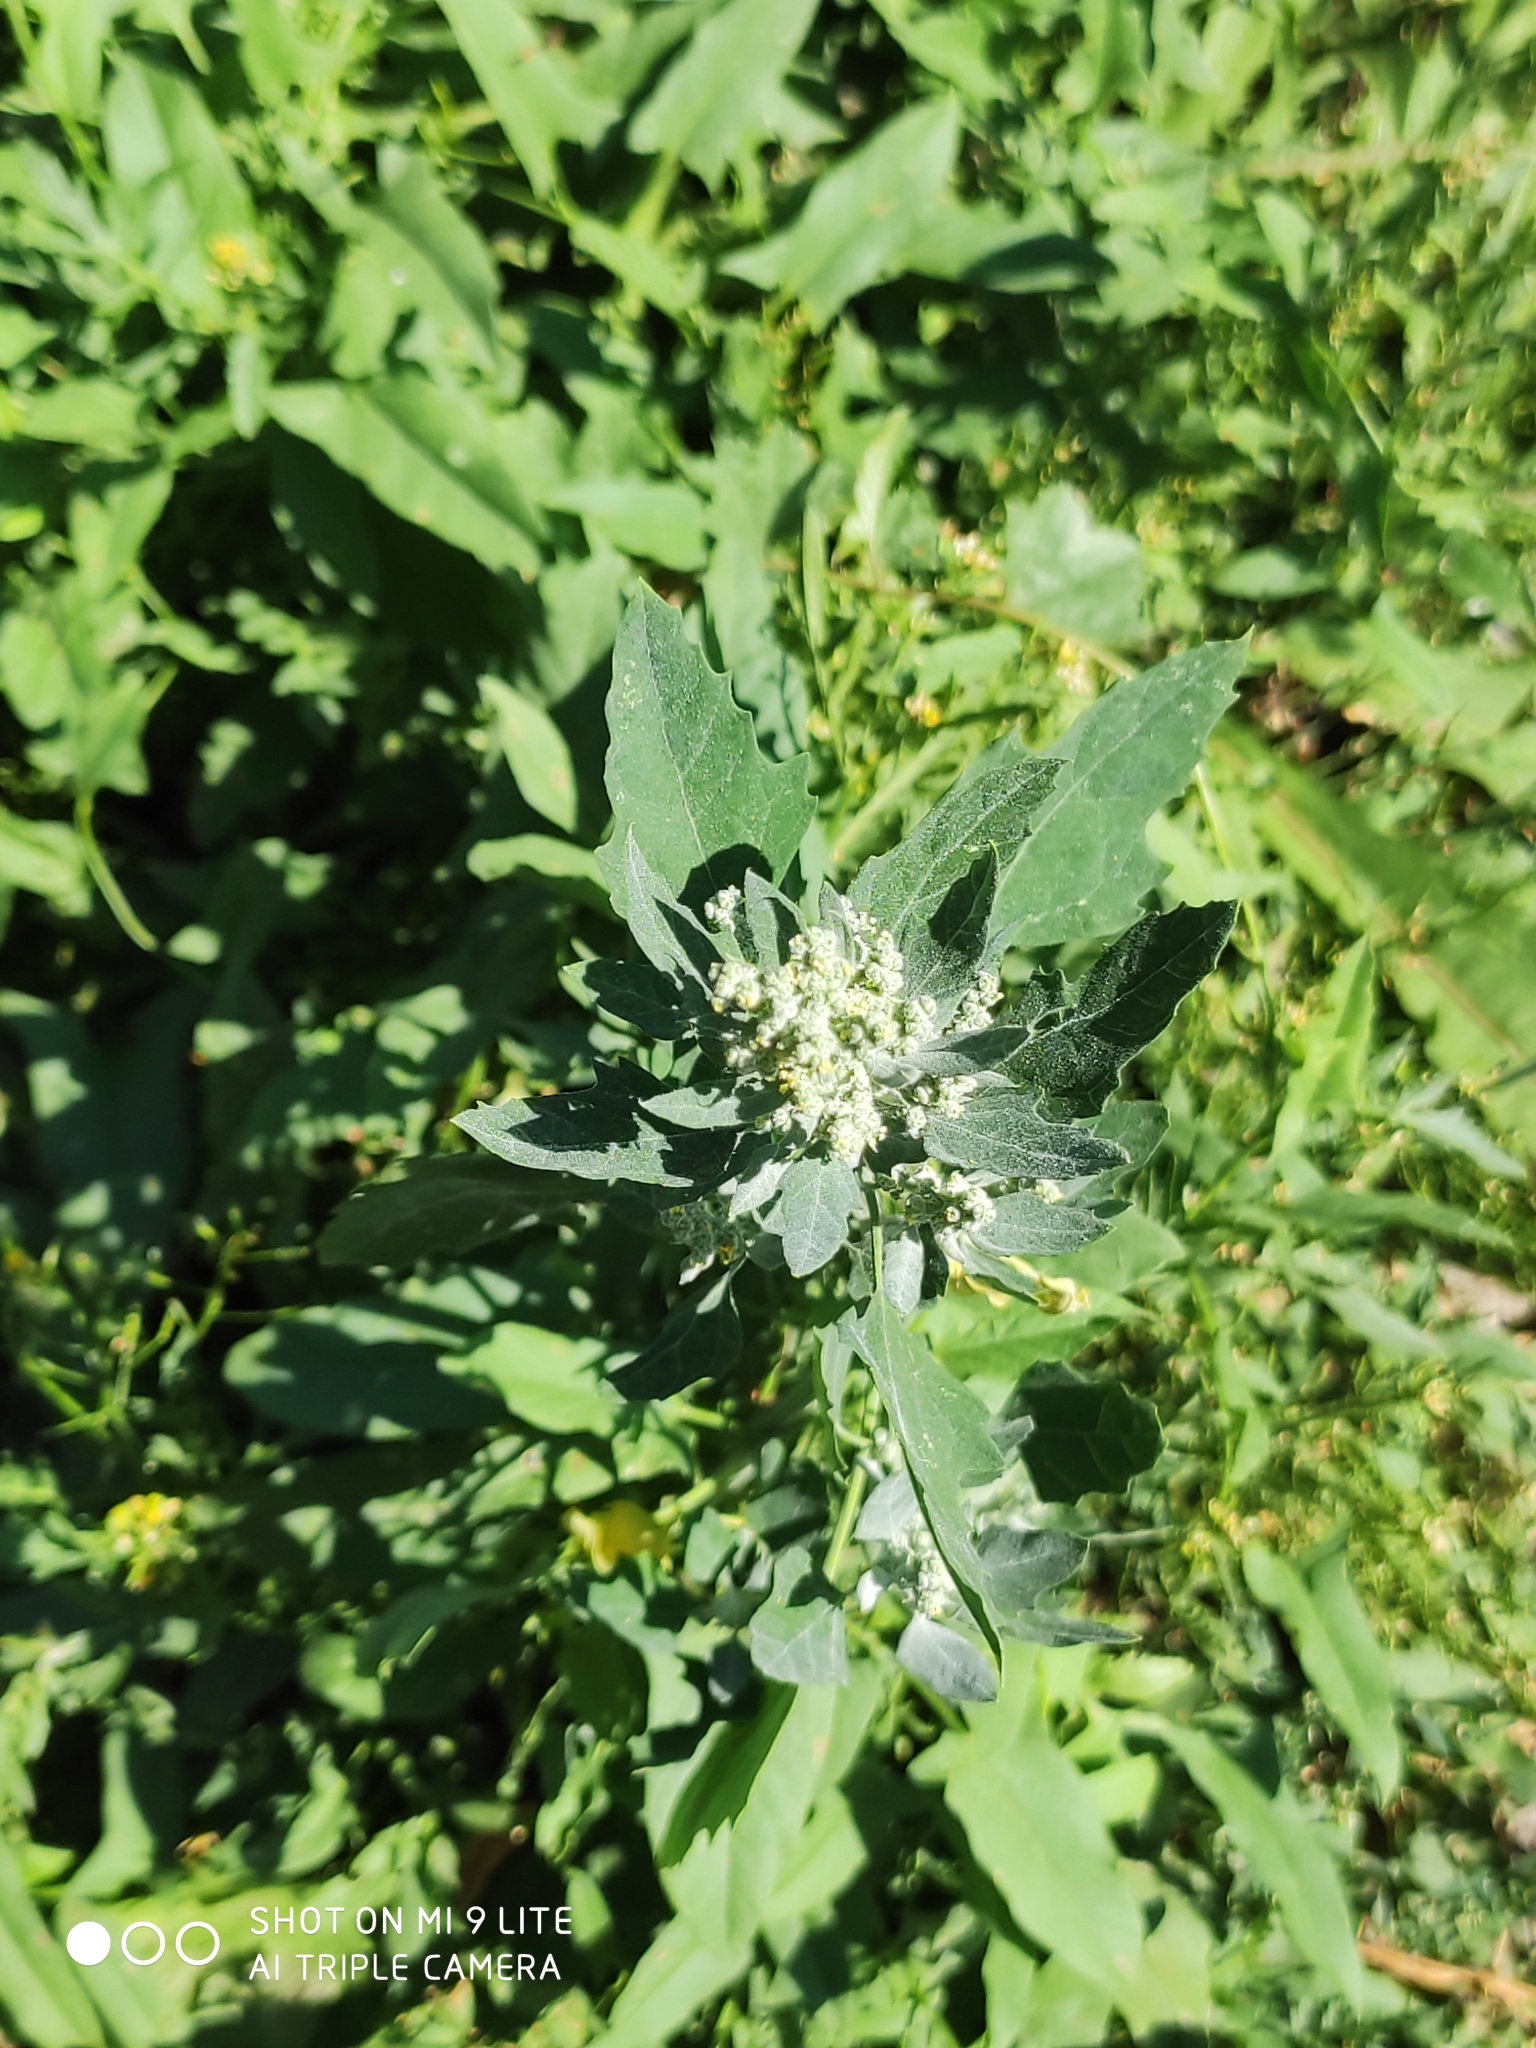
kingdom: Plantae
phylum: Tracheophyta
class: Magnoliopsida
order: Caryophyllales
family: Amaranthaceae
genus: Chenopodium
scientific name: Chenopodium album
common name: Fat-hen
